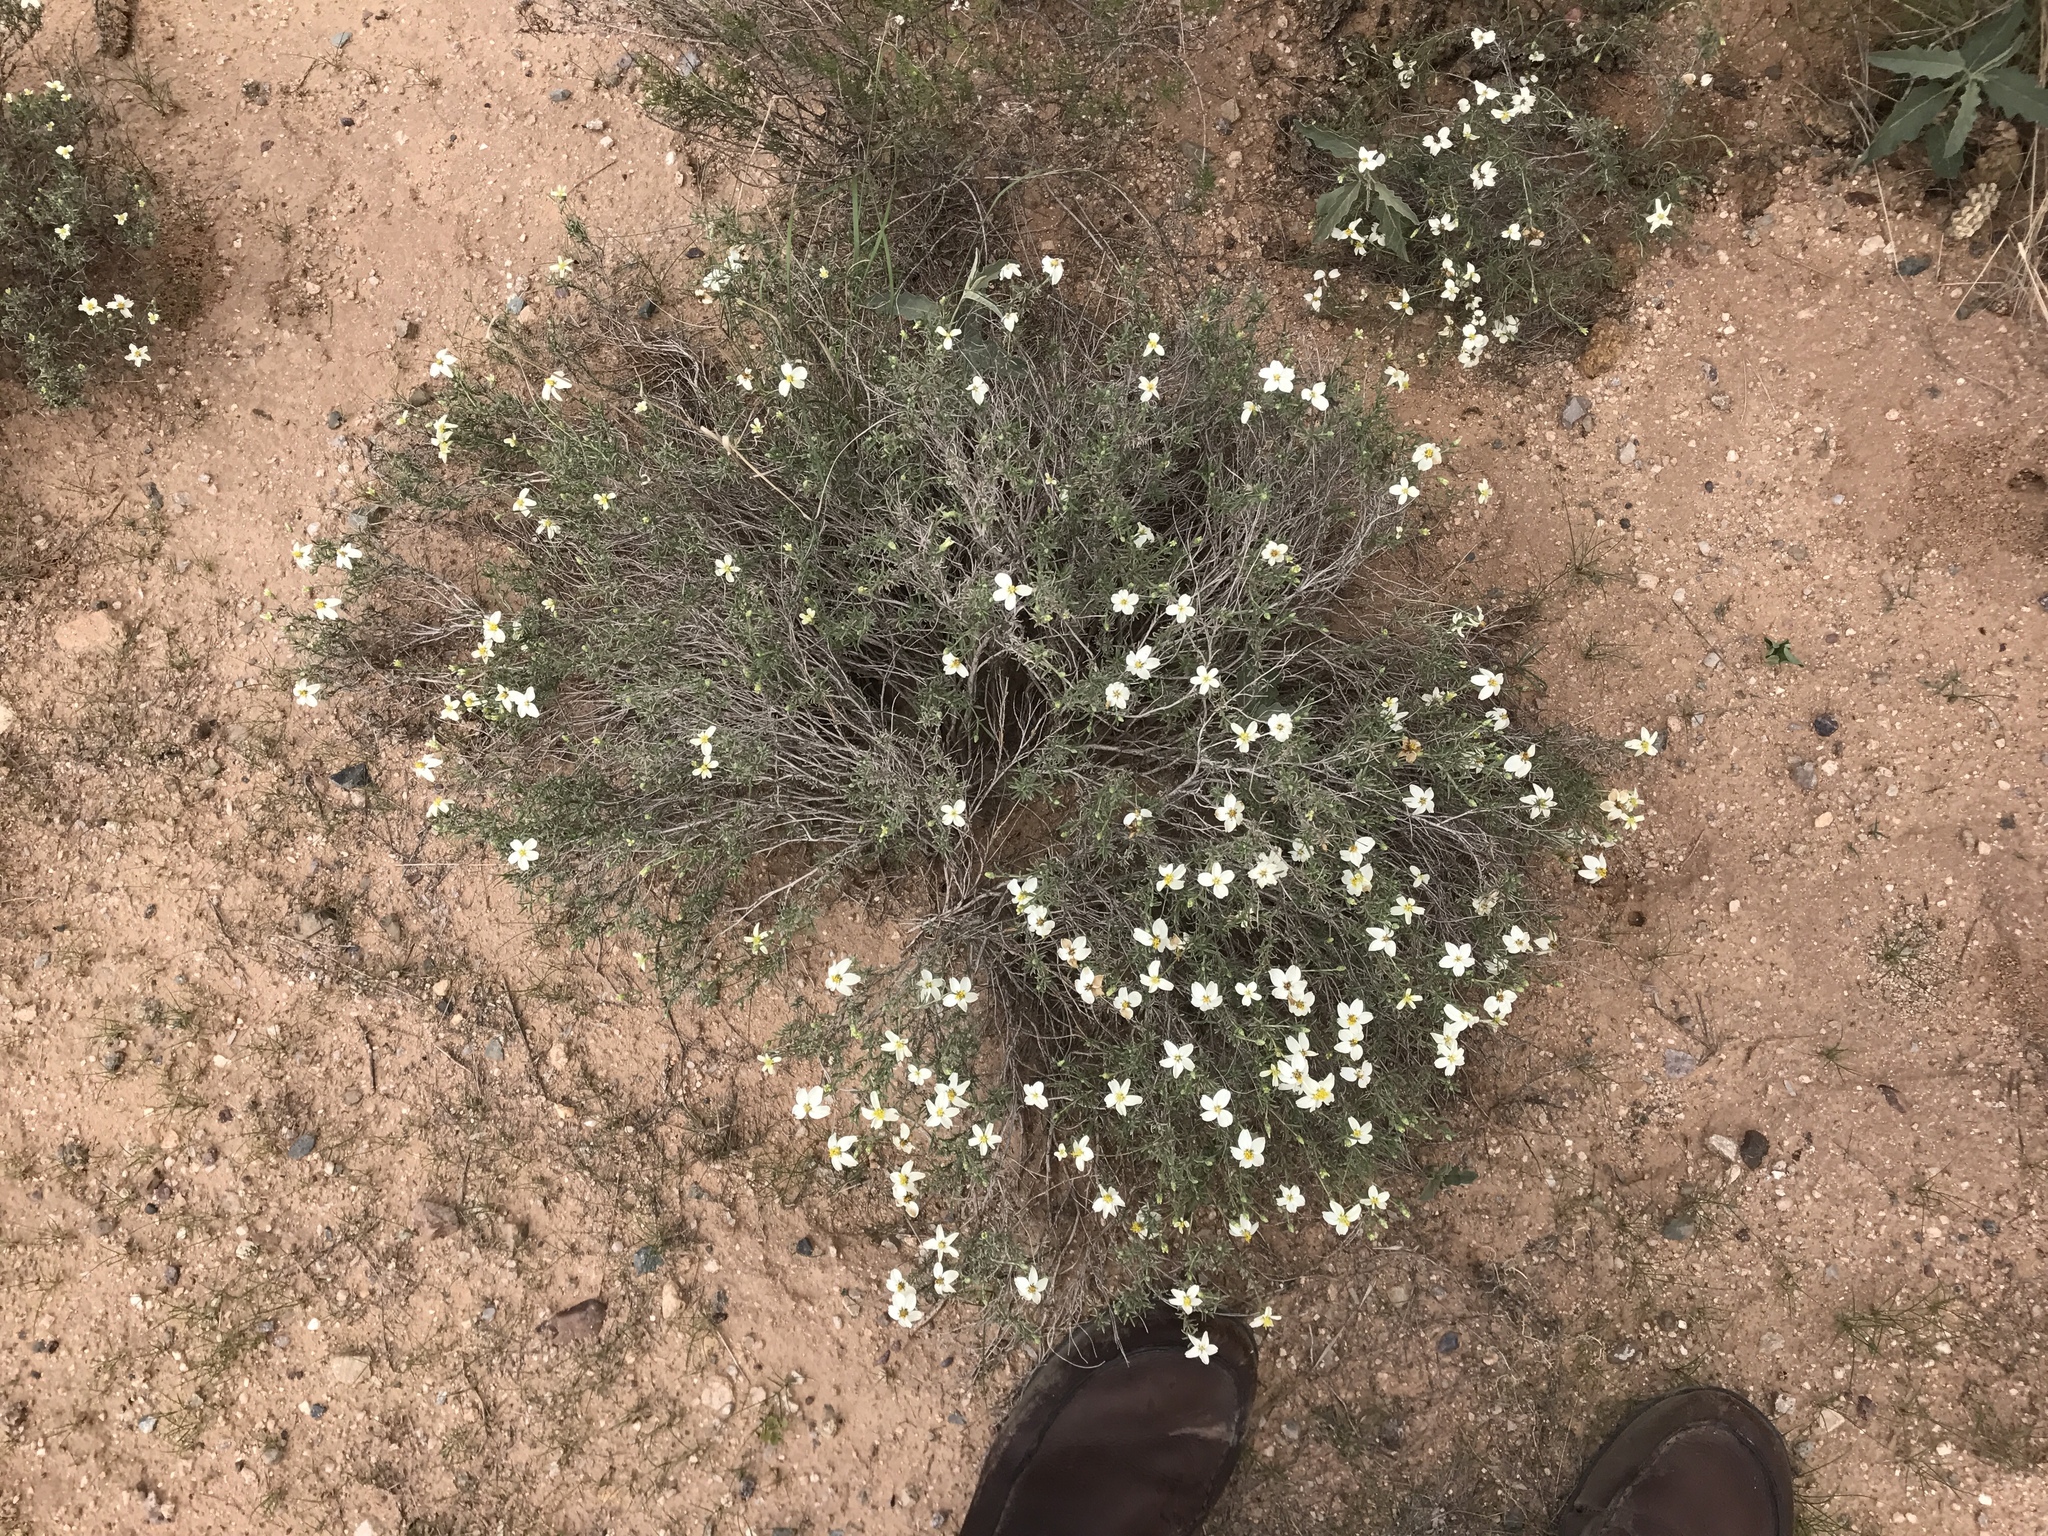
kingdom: Plantae
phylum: Tracheophyta
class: Magnoliopsida
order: Asterales
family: Asteraceae
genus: Zinnia
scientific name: Zinnia acerosa
